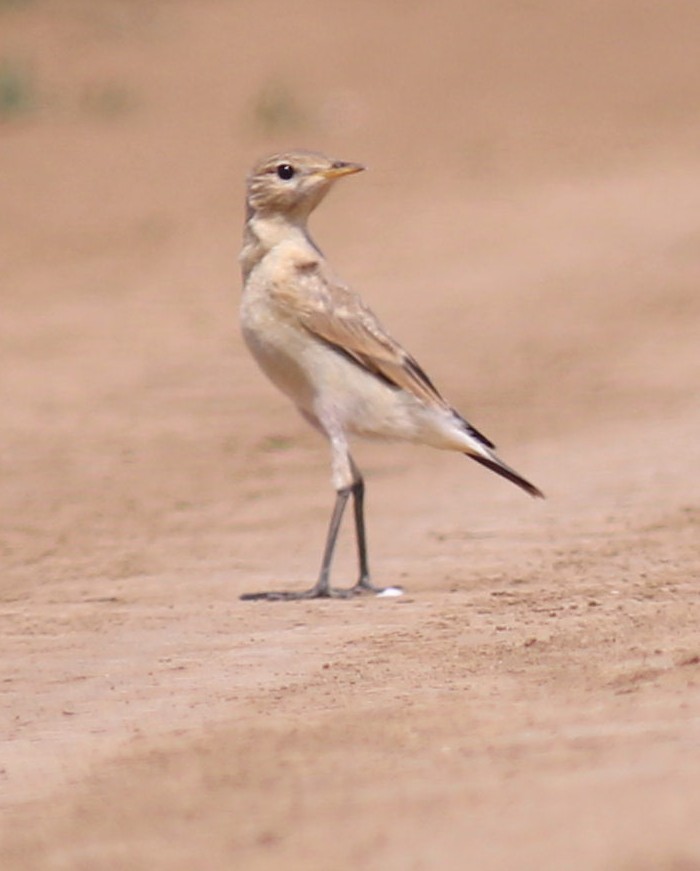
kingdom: Animalia
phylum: Chordata
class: Aves
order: Passeriformes
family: Muscicapidae
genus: Oenanthe
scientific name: Oenanthe isabellina
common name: Isabelline wheatear
